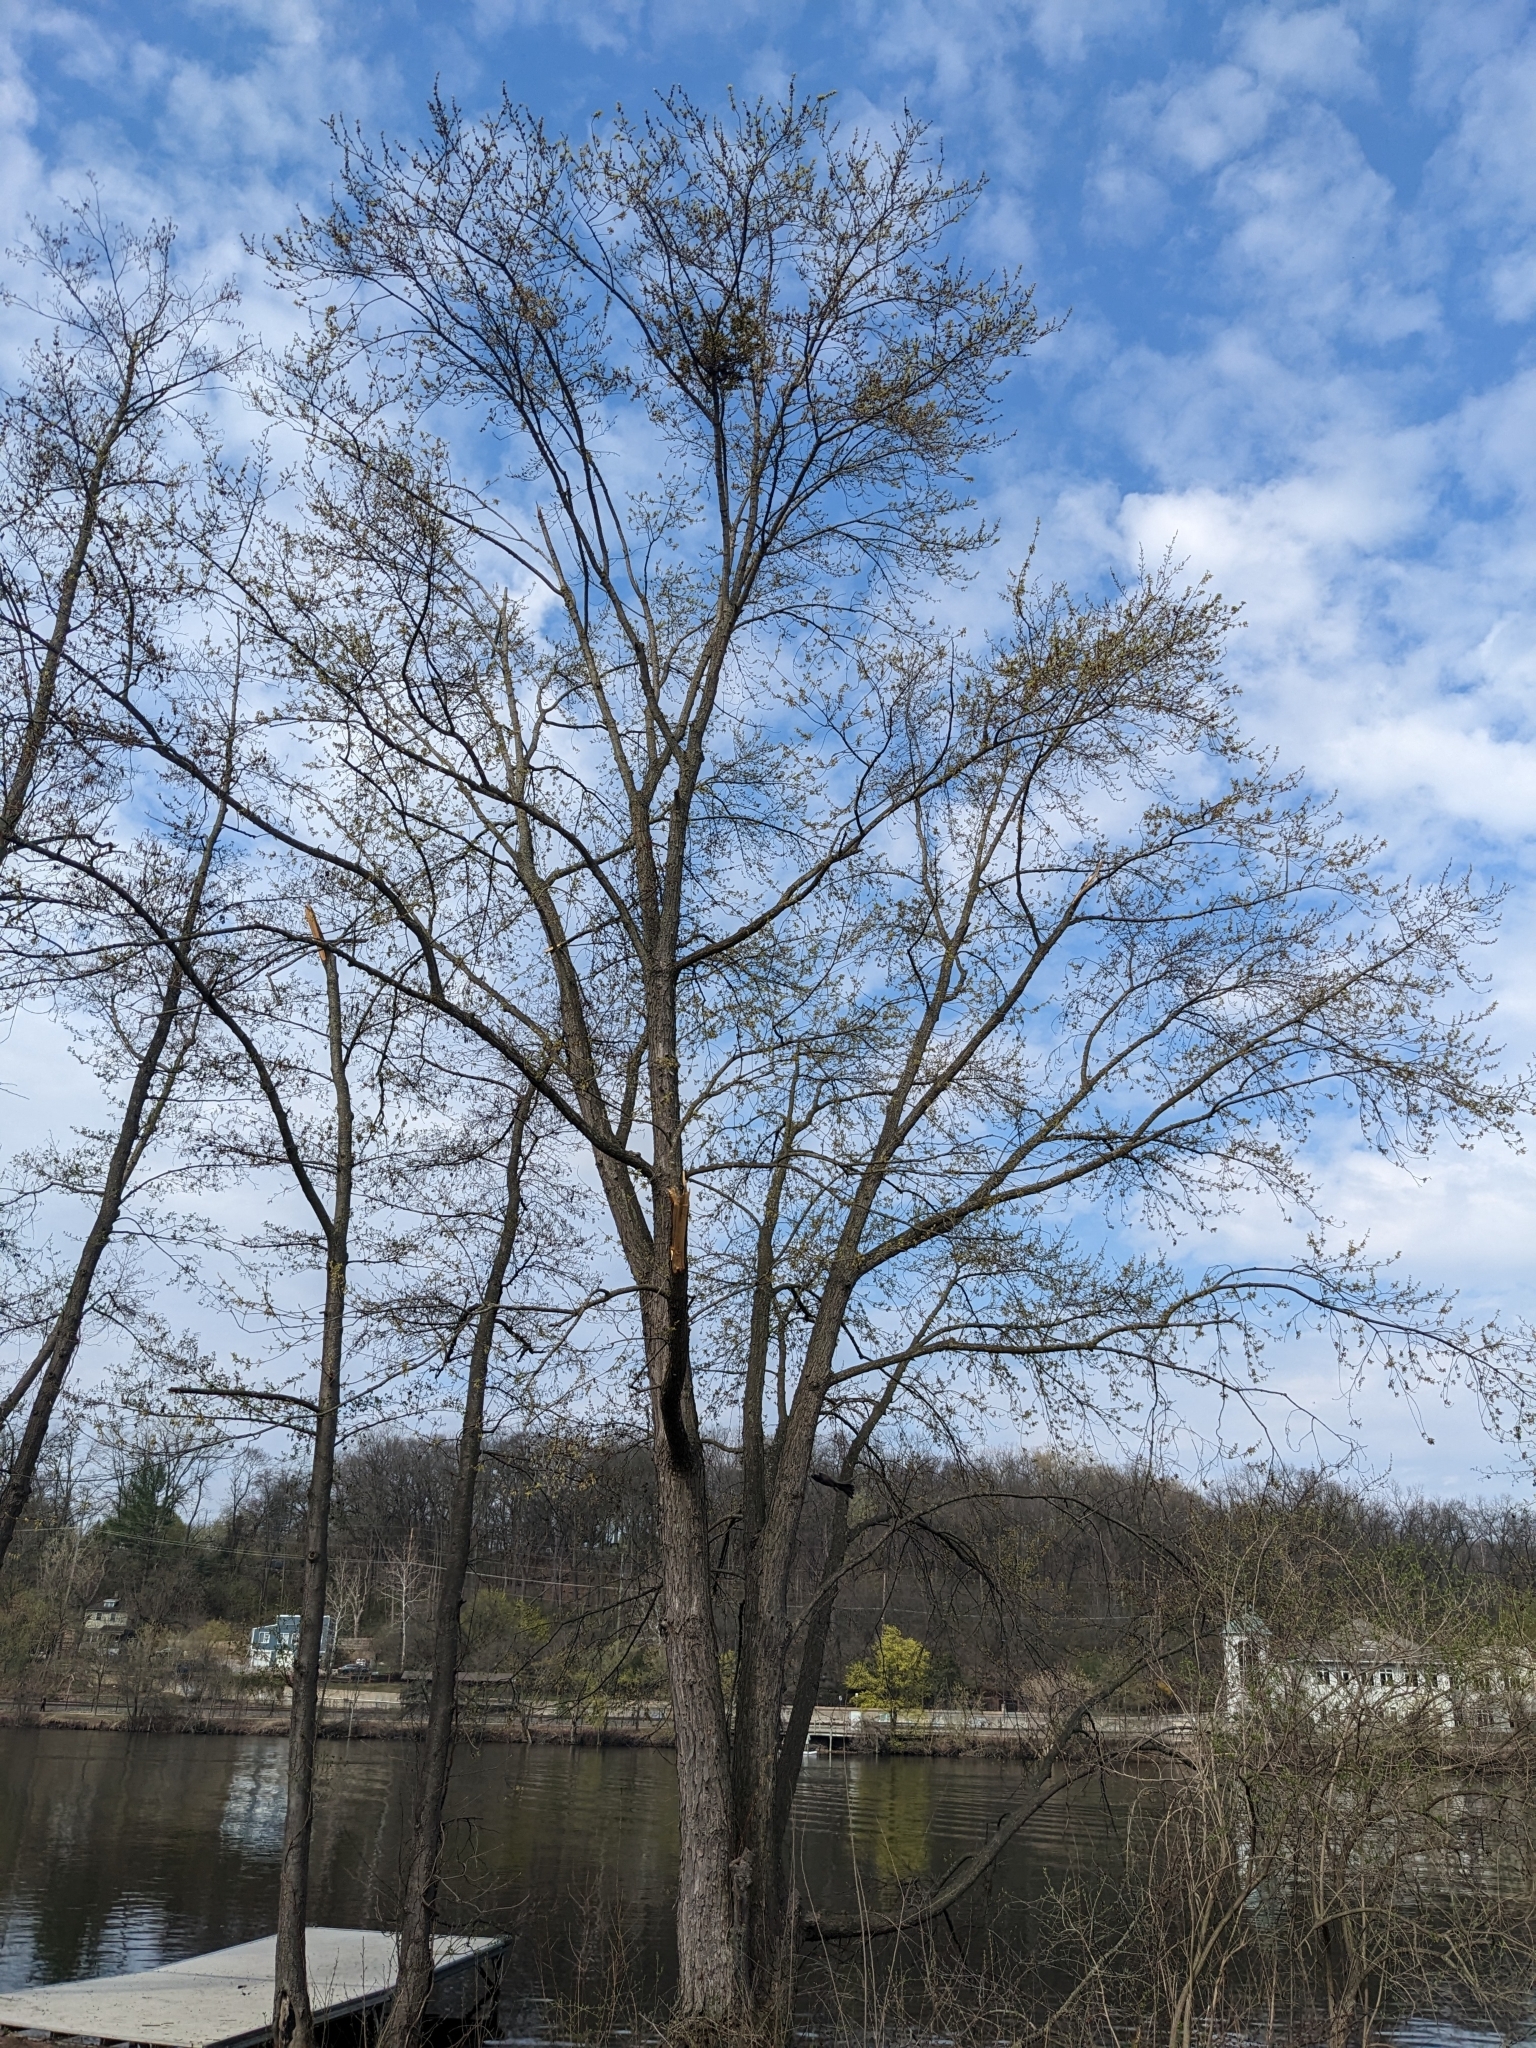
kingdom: Plantae
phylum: Tracheophyta
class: Magnoliopsida
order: Sapindales
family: Sapindaceae
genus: Acer
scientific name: Acer saccharinum
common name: Silver maple
